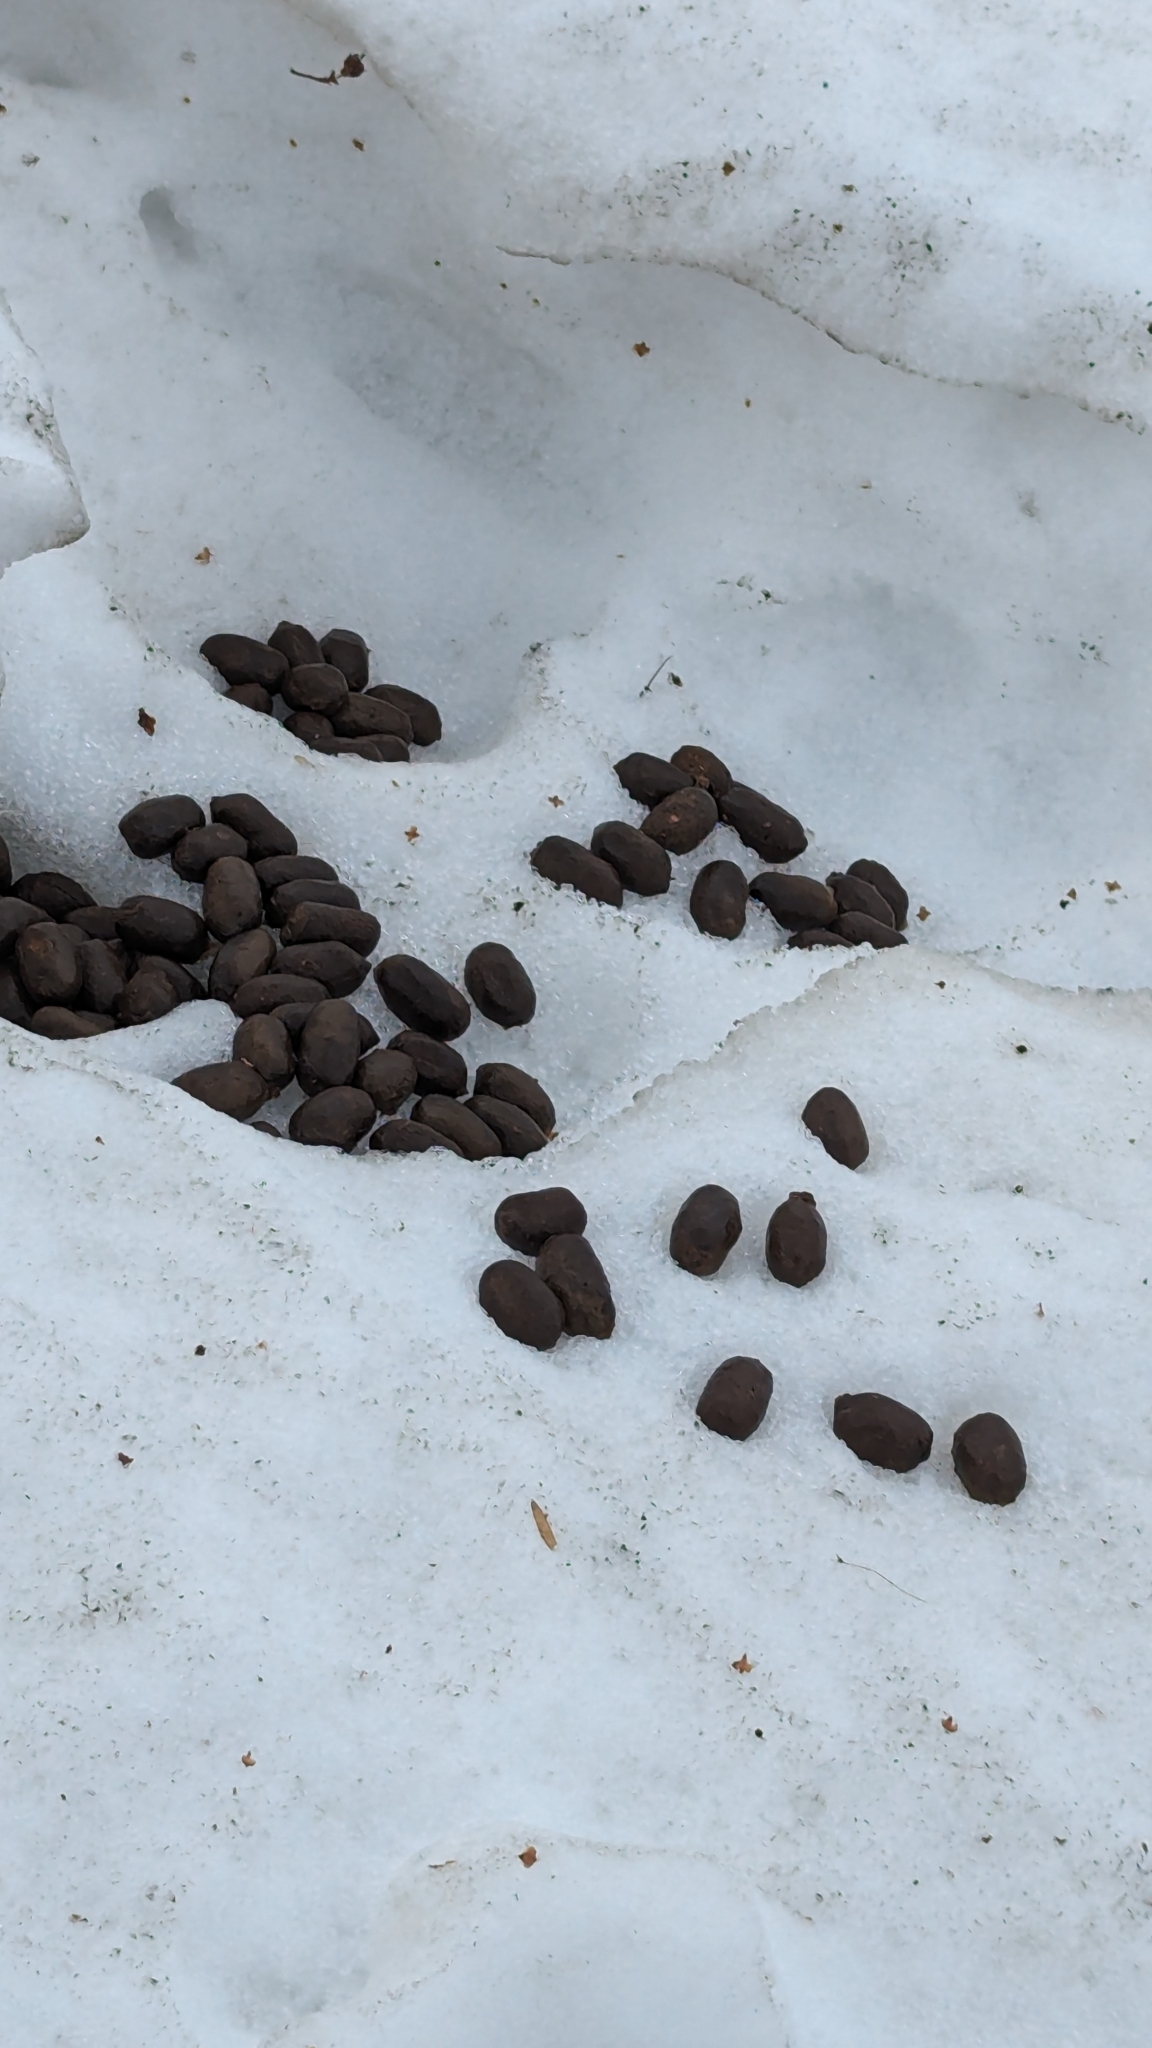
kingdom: Animalia
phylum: Chordata
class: Mammalia
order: Artiodactyla
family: Cervidae
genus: Alces
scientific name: Alces alces
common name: Moose
